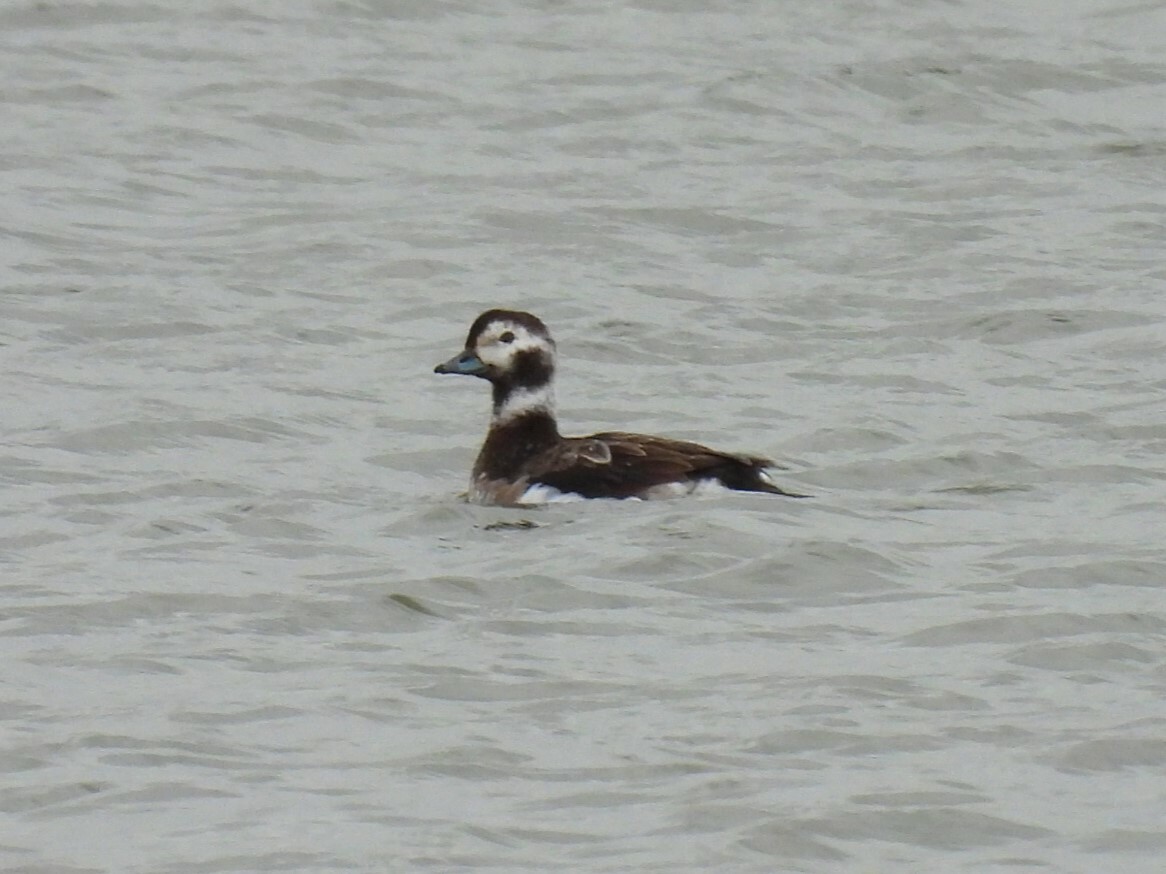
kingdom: Animalia
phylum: Chordata
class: Aves
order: Anseriformes
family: Anatidae
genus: Clangula
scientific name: Clangula hyemalis
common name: Long-tailed duck
